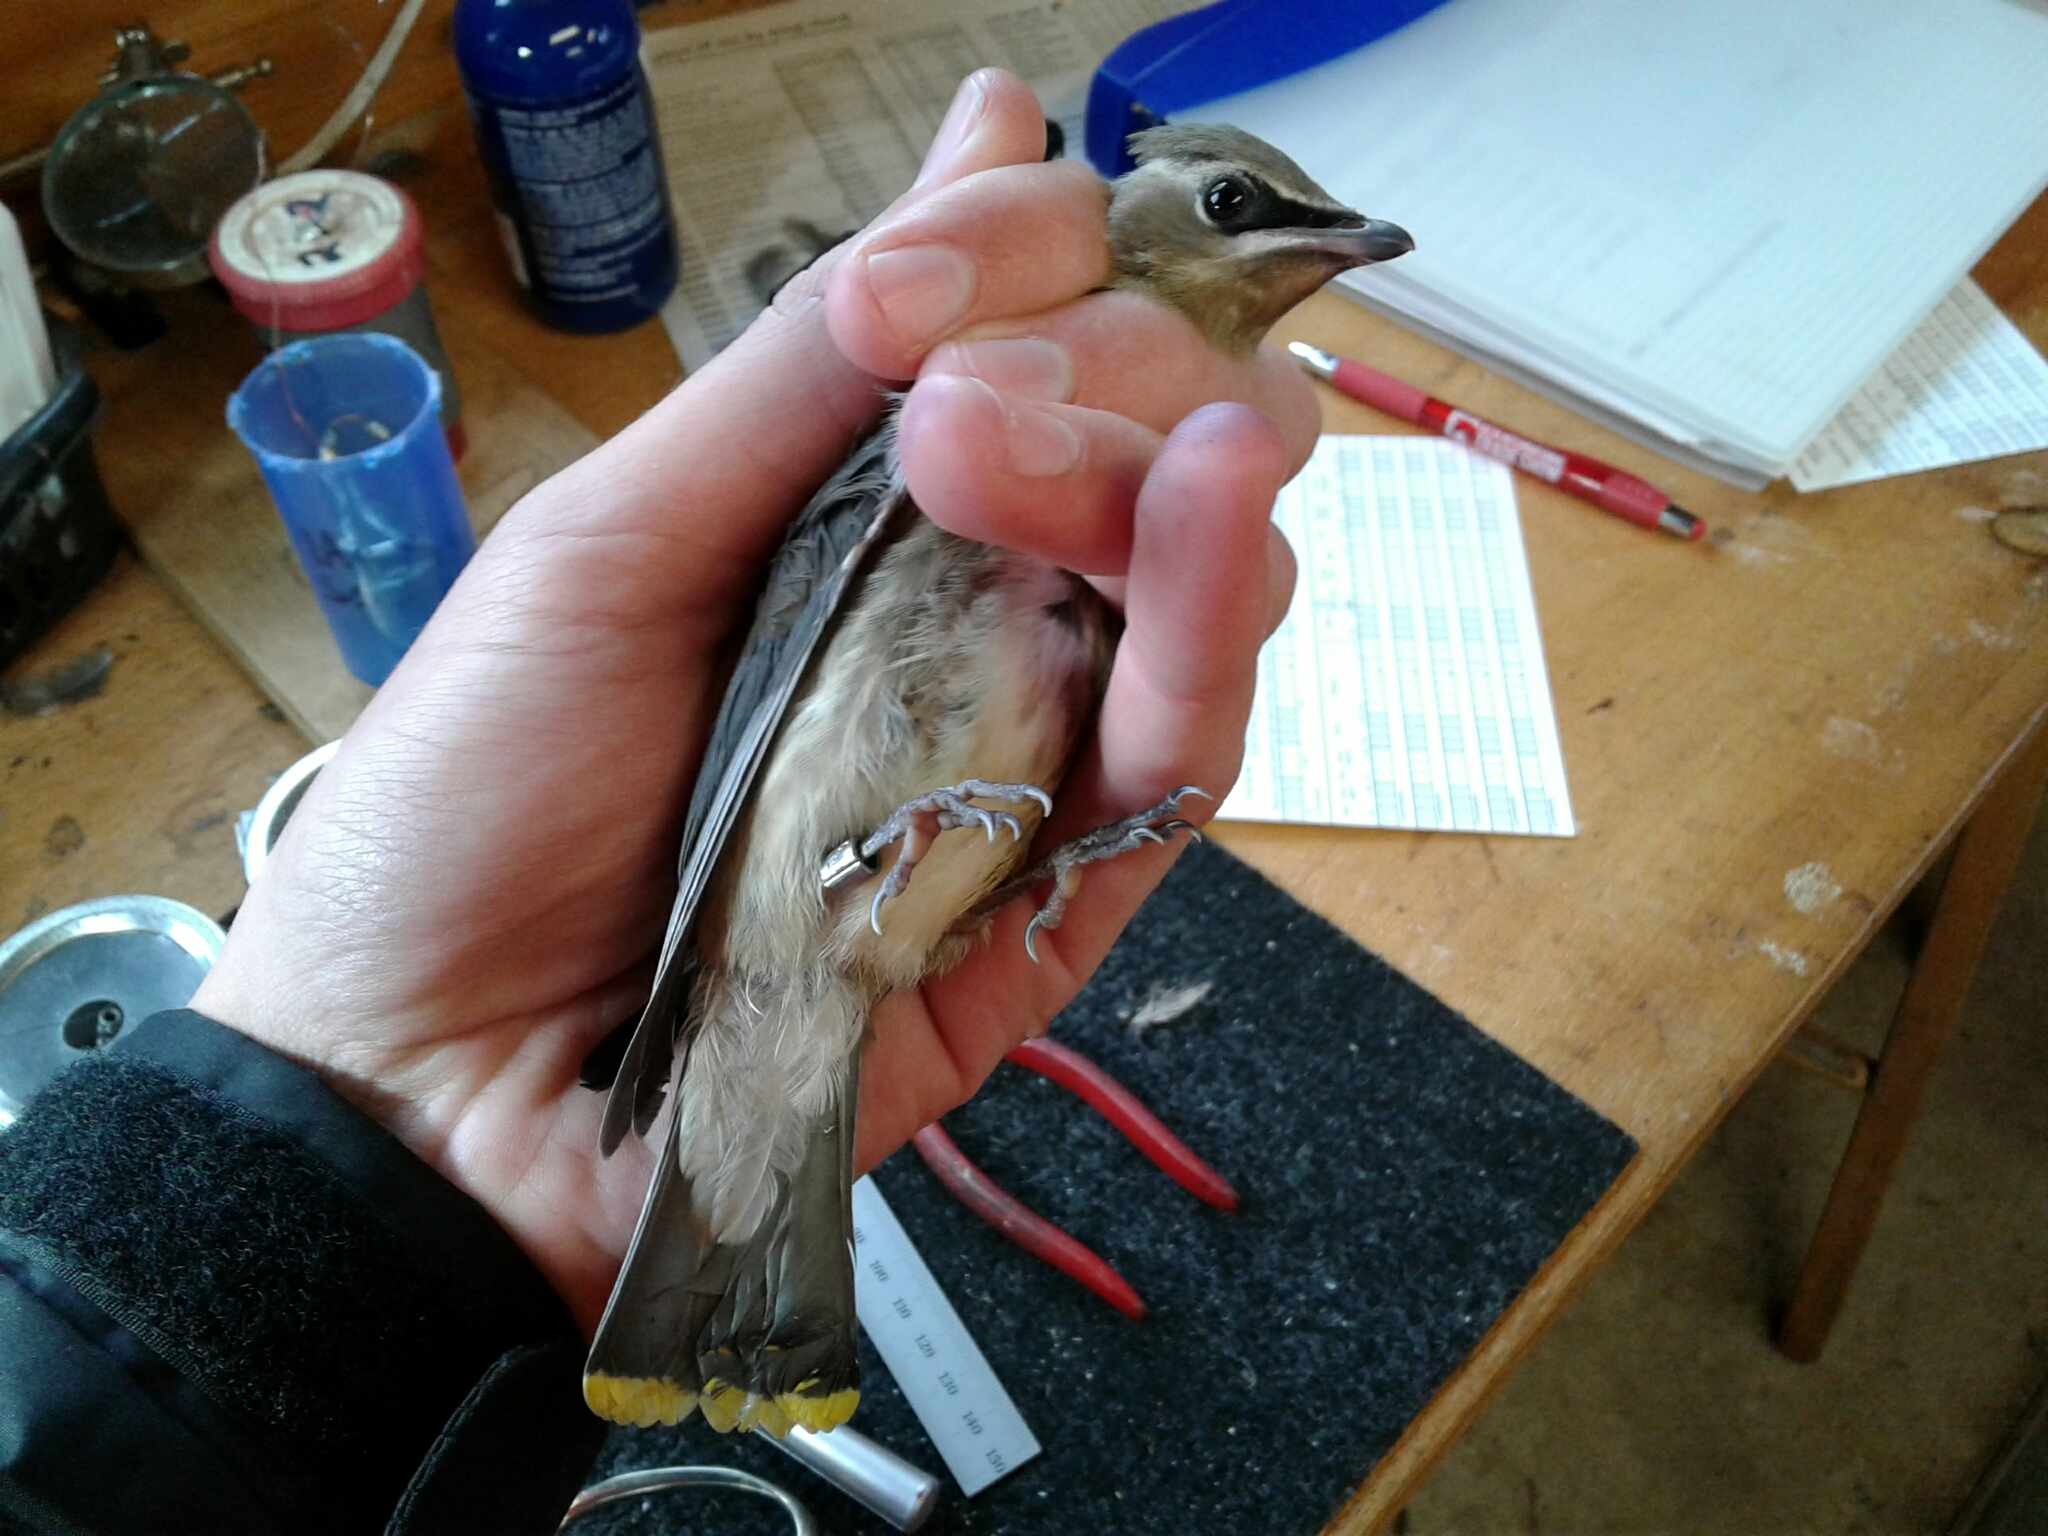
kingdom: Animalia
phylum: Chordata
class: Aves
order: Passeriformes
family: Bombycillidae
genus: Bombycilla
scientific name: Bombycilla cedrorum
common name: Cedar waxwing
